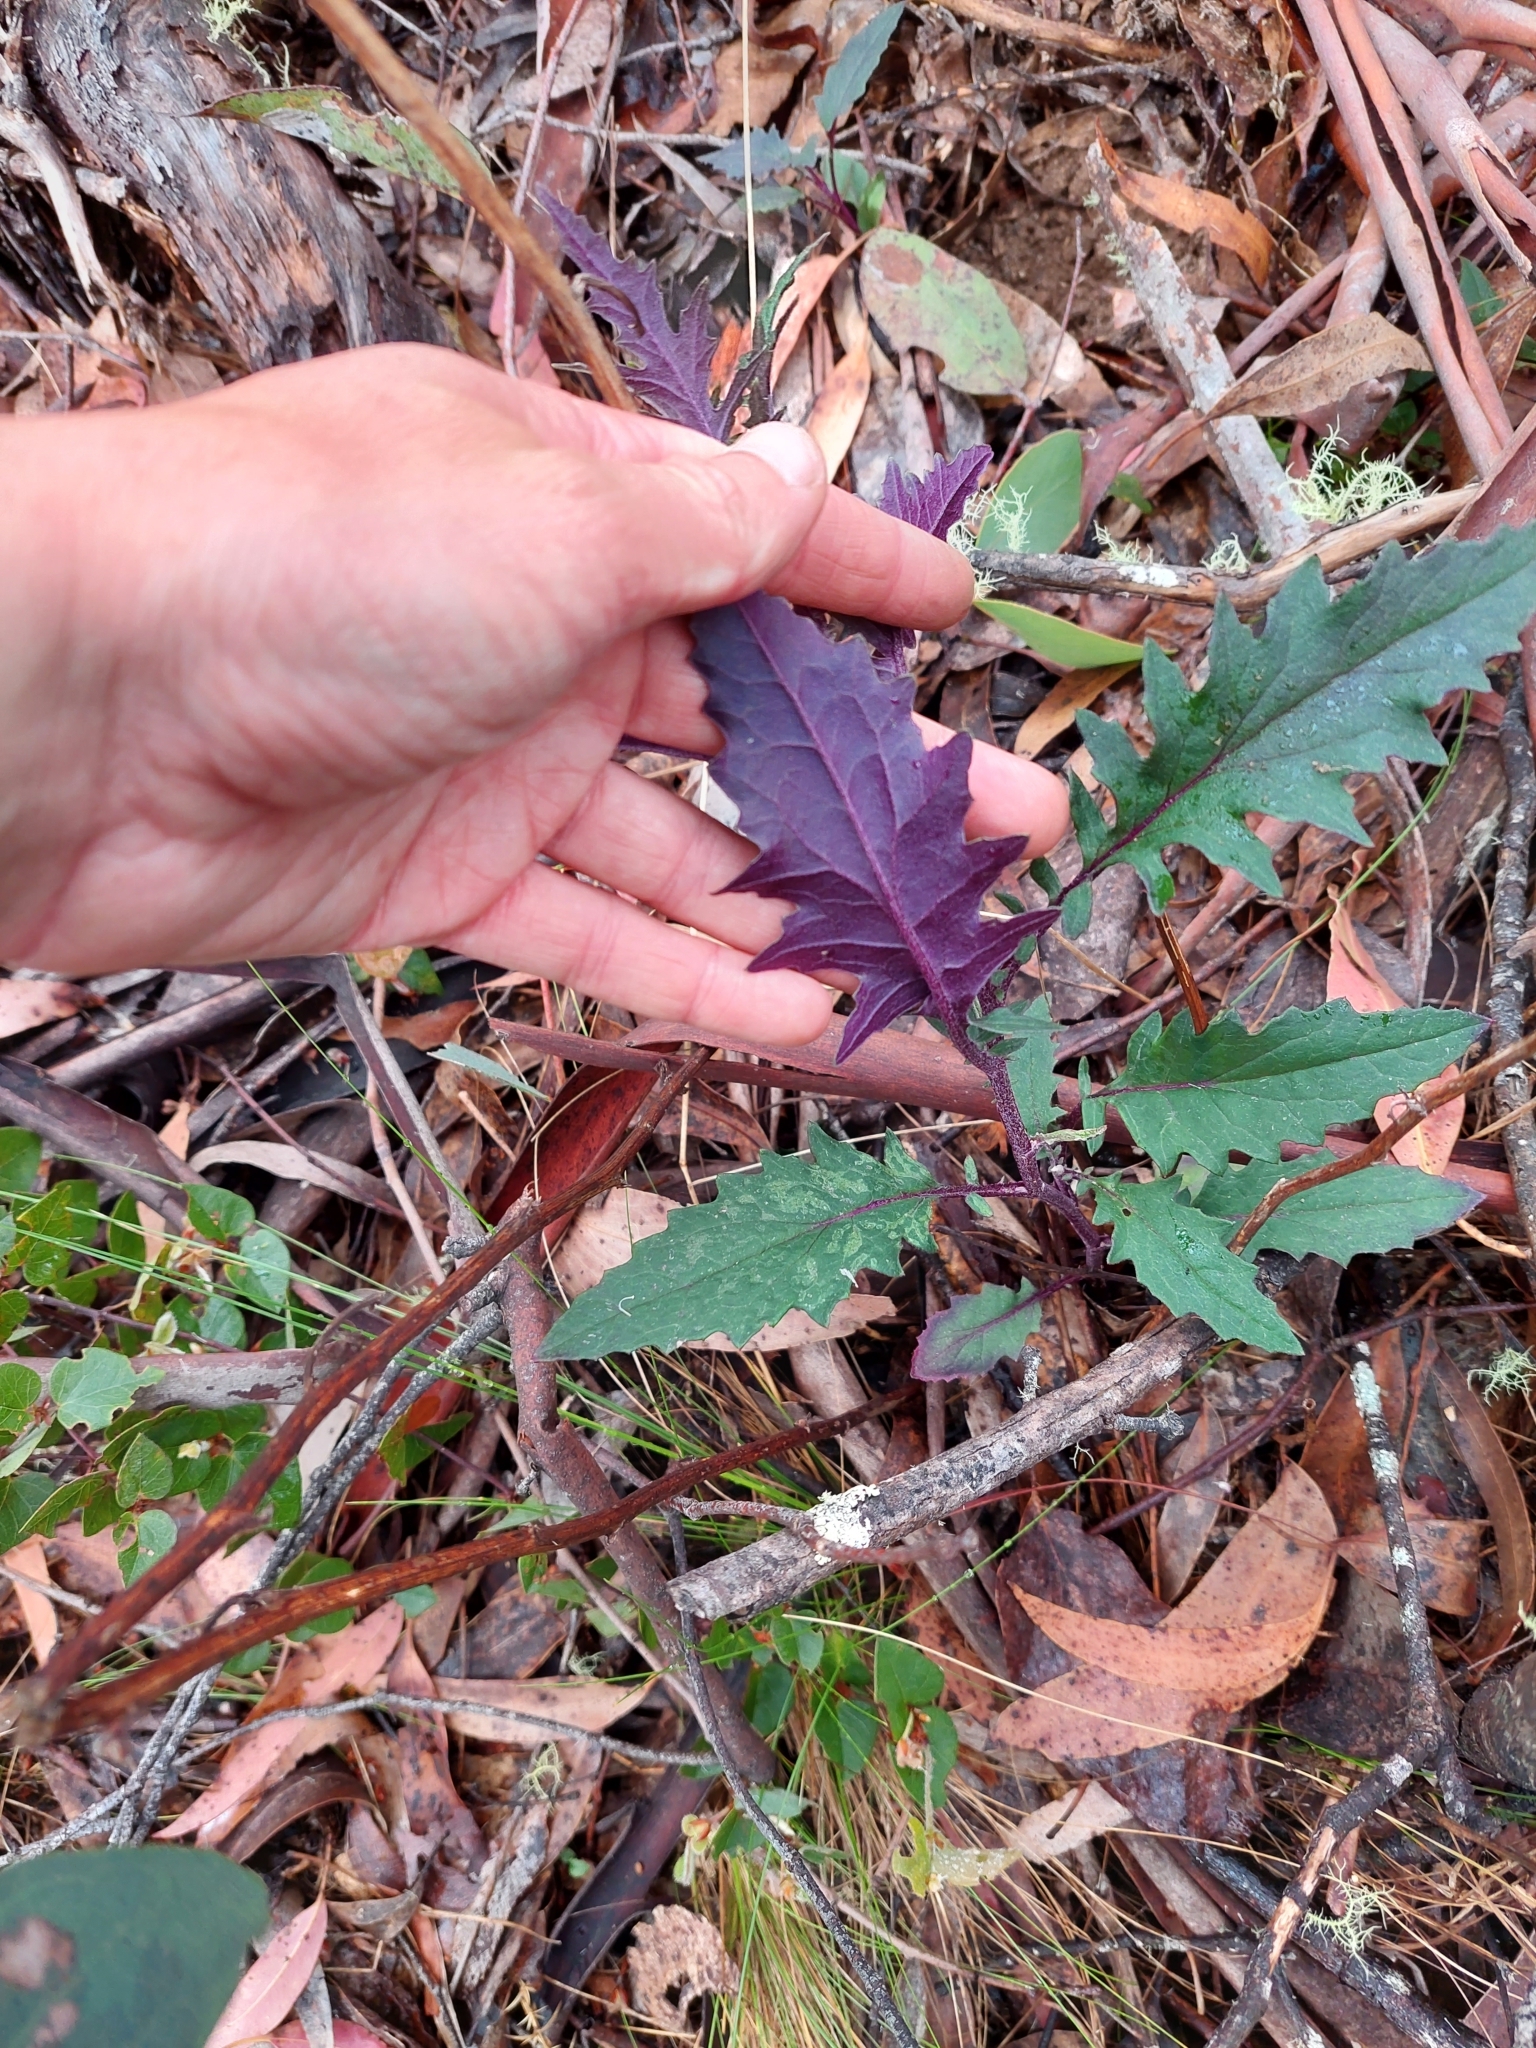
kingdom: Plantae
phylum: Tracheophyta
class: Magnoliopsida
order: Asterales
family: Asteraceae
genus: Arrhenechthites
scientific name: Arrhenechthites mixtus
